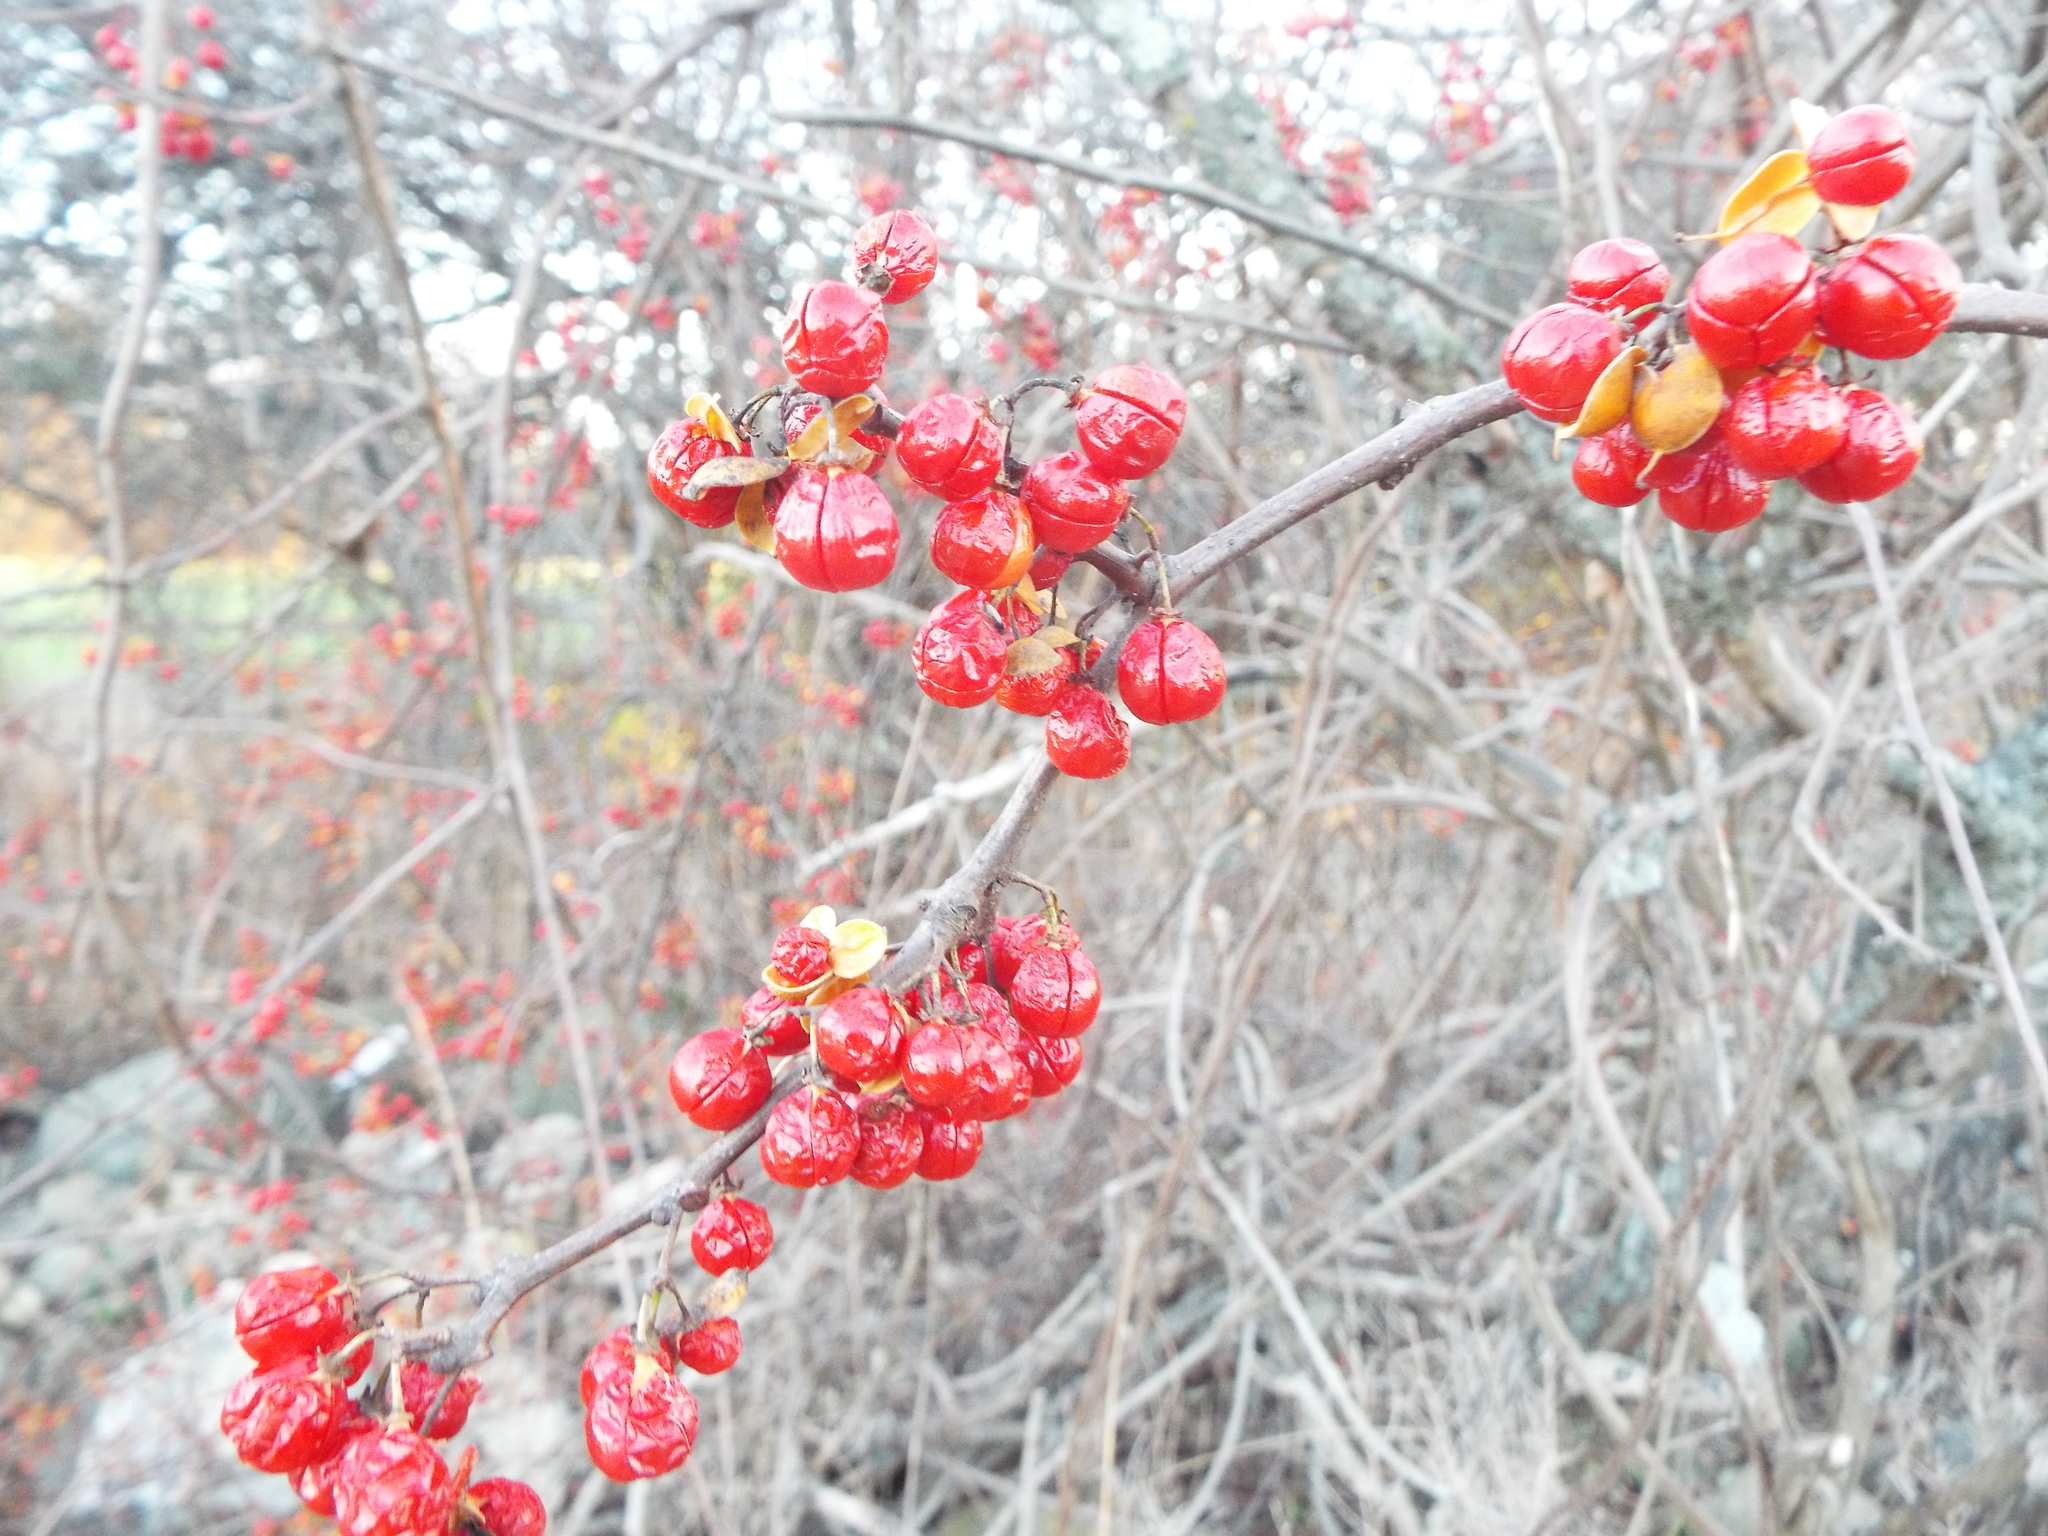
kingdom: Plantae
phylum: Tracheophyta
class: Magnoliopsida
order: Celastrales
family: Celastraceae
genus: Celastrus
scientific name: Celastrus orbiculatus
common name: Oriental bittersweet
